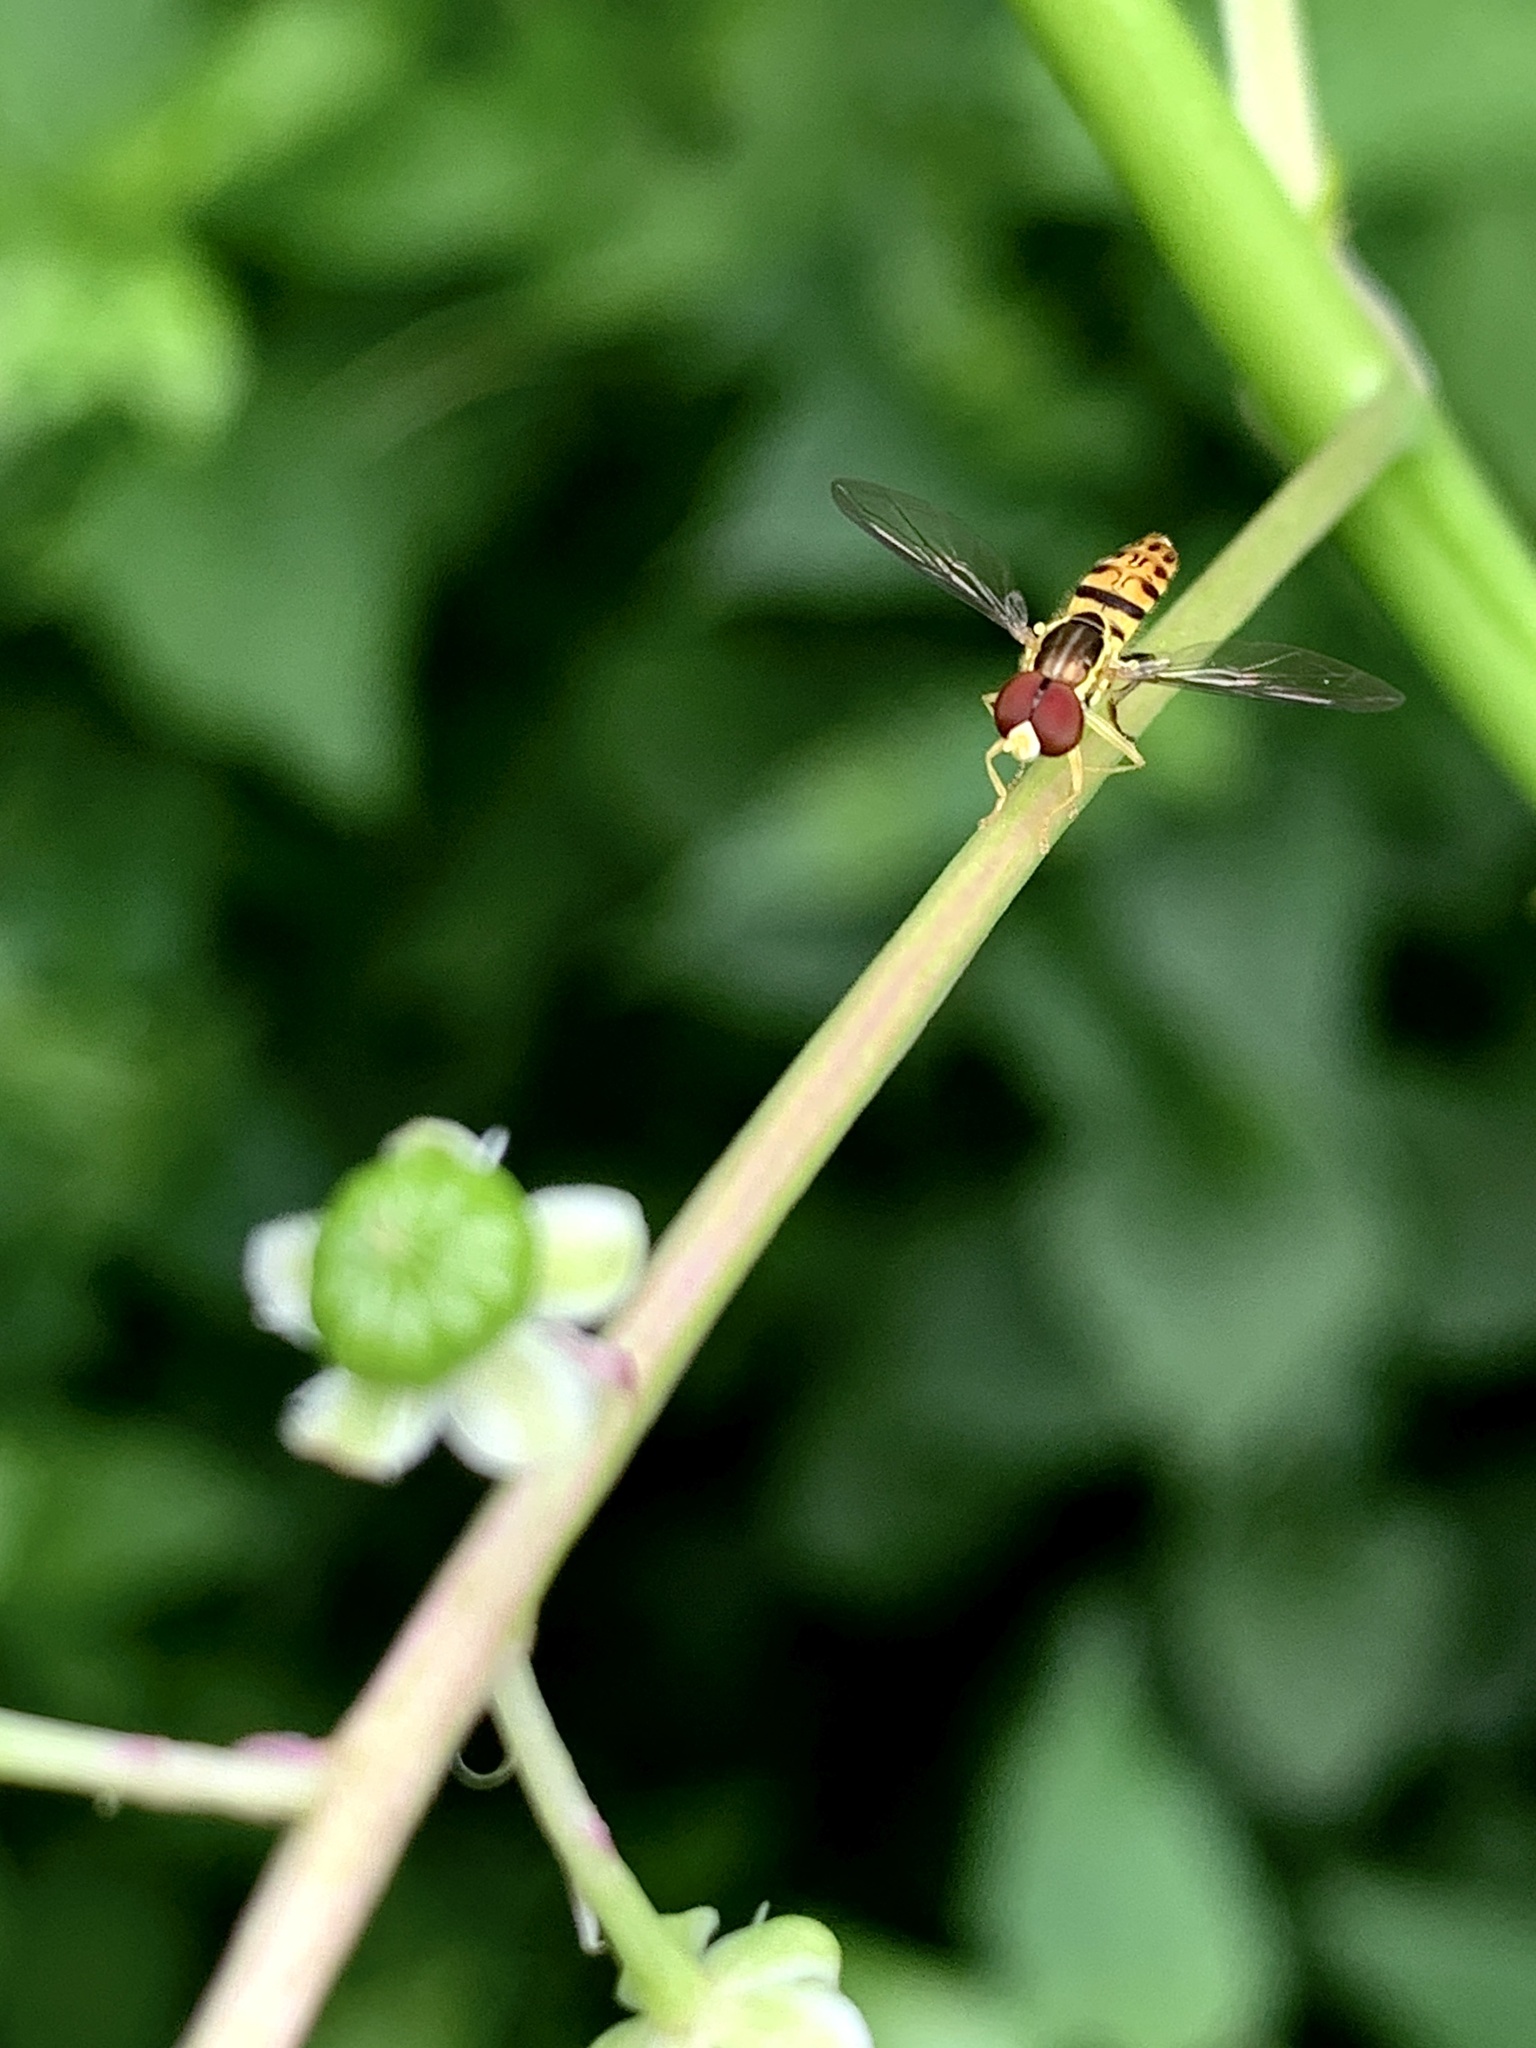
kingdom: Animalia
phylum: Arthropoda
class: Insecta
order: Diptera
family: Syrphidae
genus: Toxomerus
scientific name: Toxomerus geminatus
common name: Eastern calligrapher
